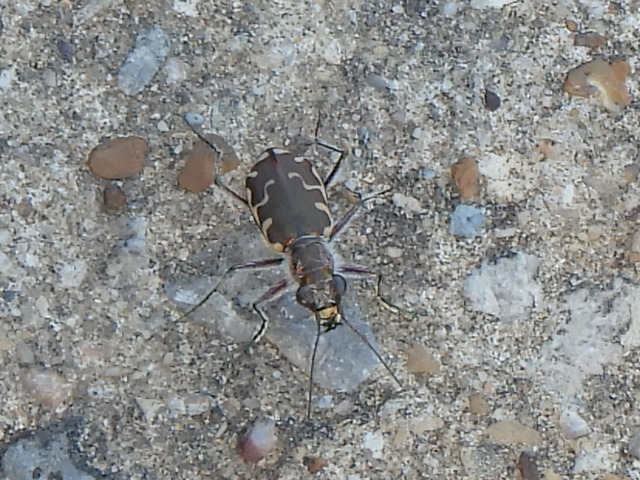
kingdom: Animalia
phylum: Arthropoda
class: Insecta
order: Coleoptera
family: Carabidae
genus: Cicindela
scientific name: Cicindela repanda
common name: Bronzed tiger beetle
